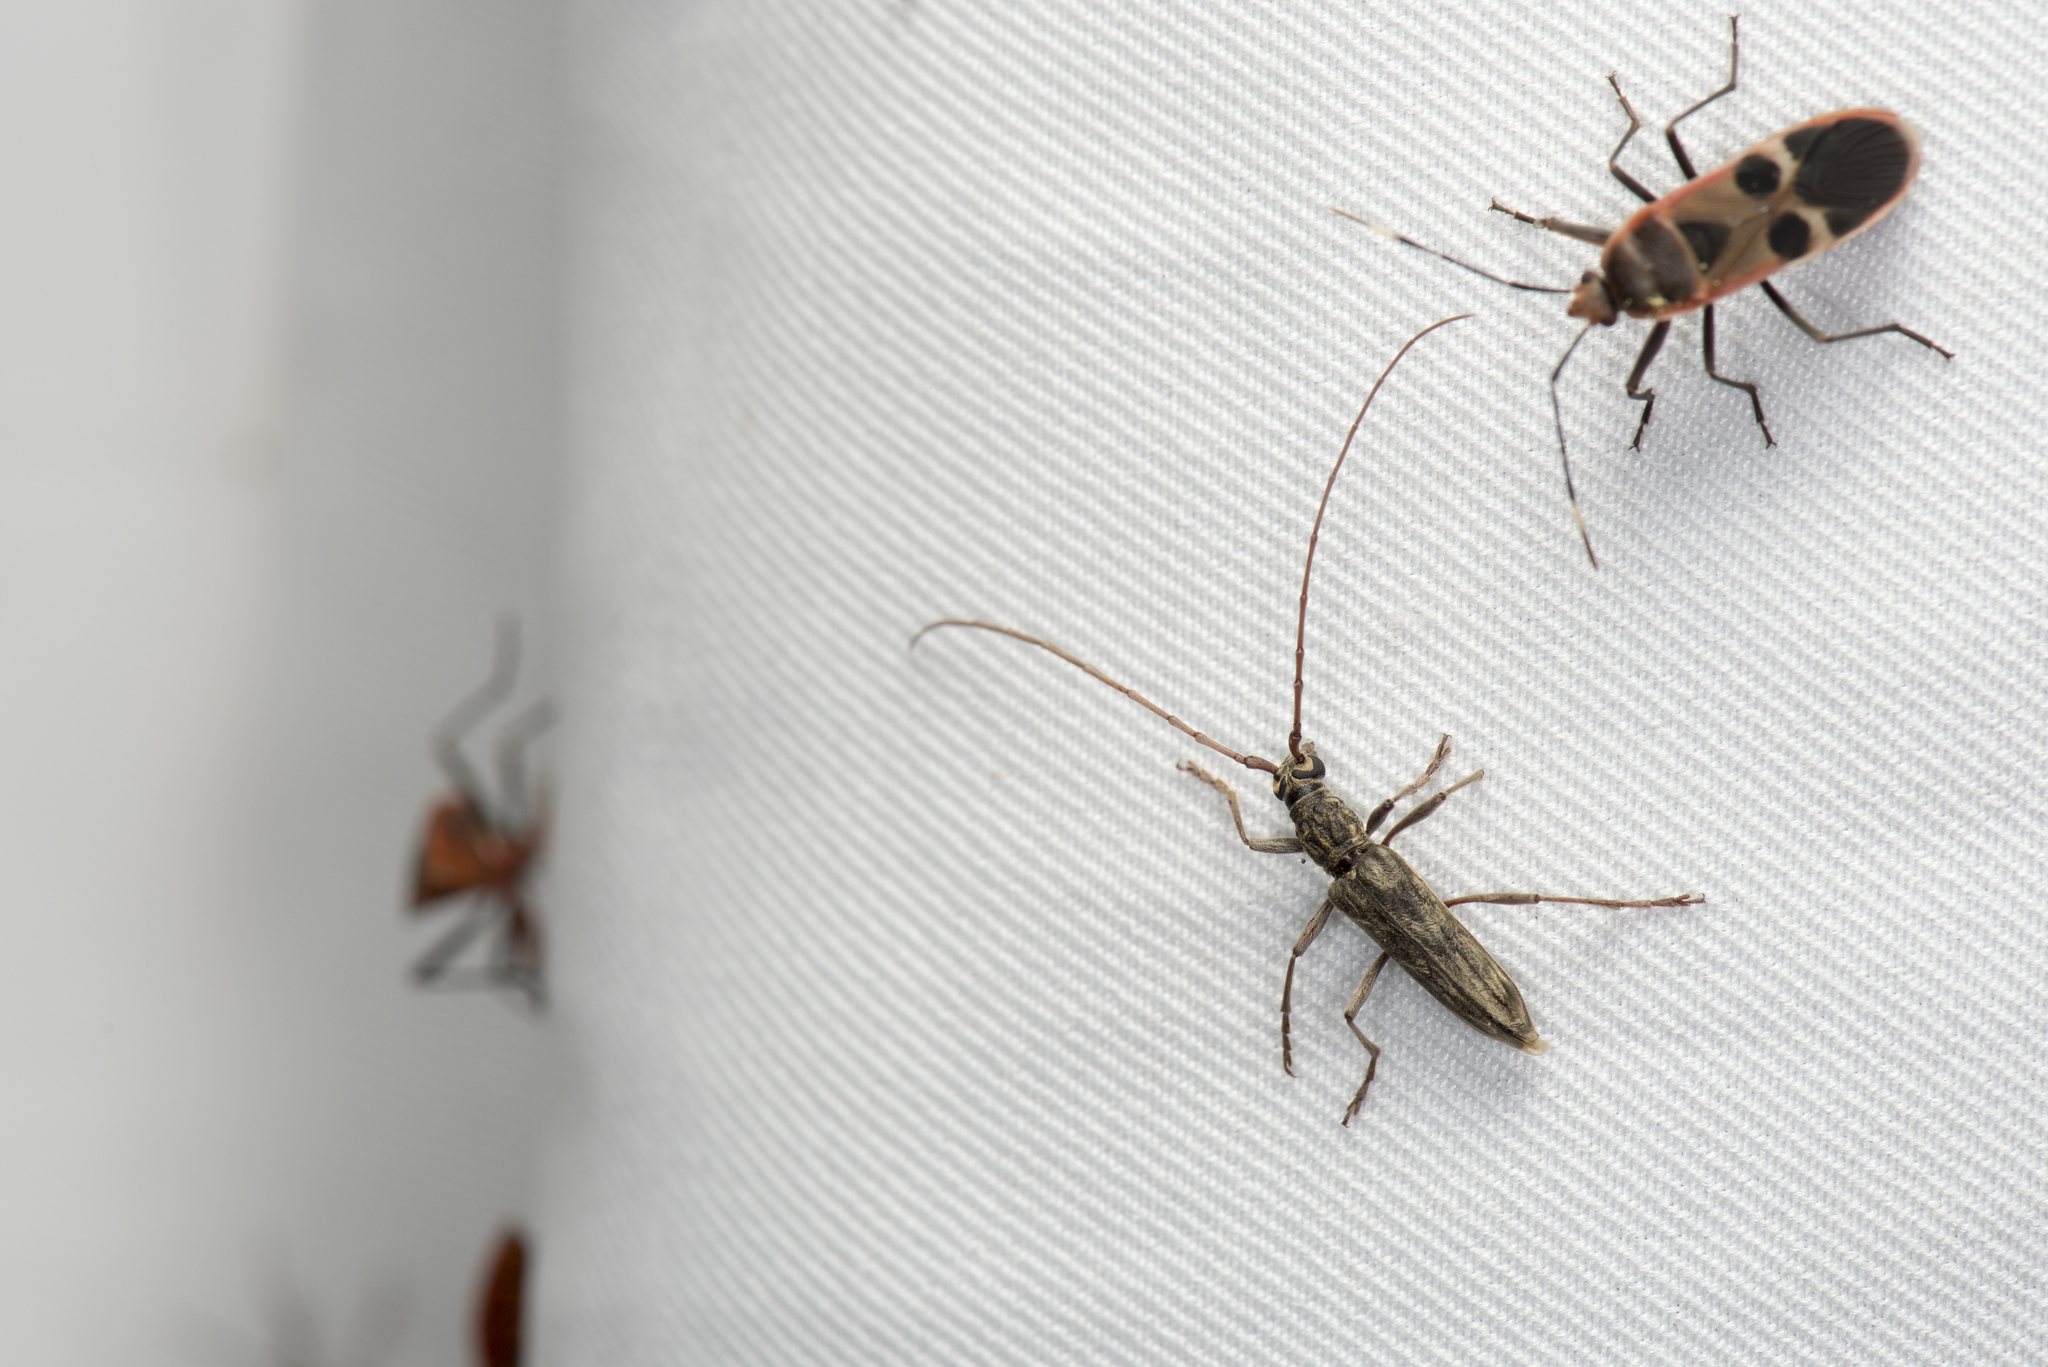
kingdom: Animalia
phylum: Arthropoda
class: Insecta
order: Coleoptera
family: Cerambycidae
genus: Elydnus
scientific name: Elydnus hirayamai
